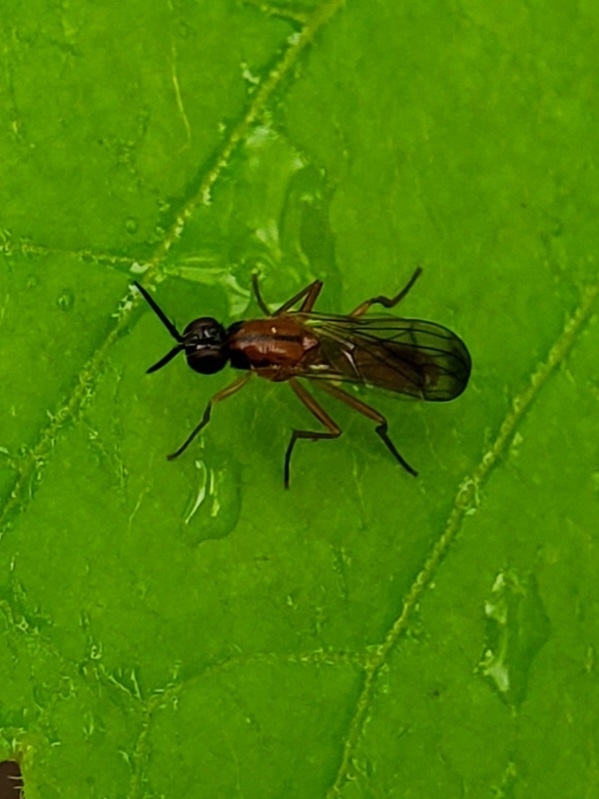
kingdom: Animalia
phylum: Arthropoda
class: Insecta
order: Diptera
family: Psilidae
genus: Loxocera
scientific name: Loxocera cylindrica
